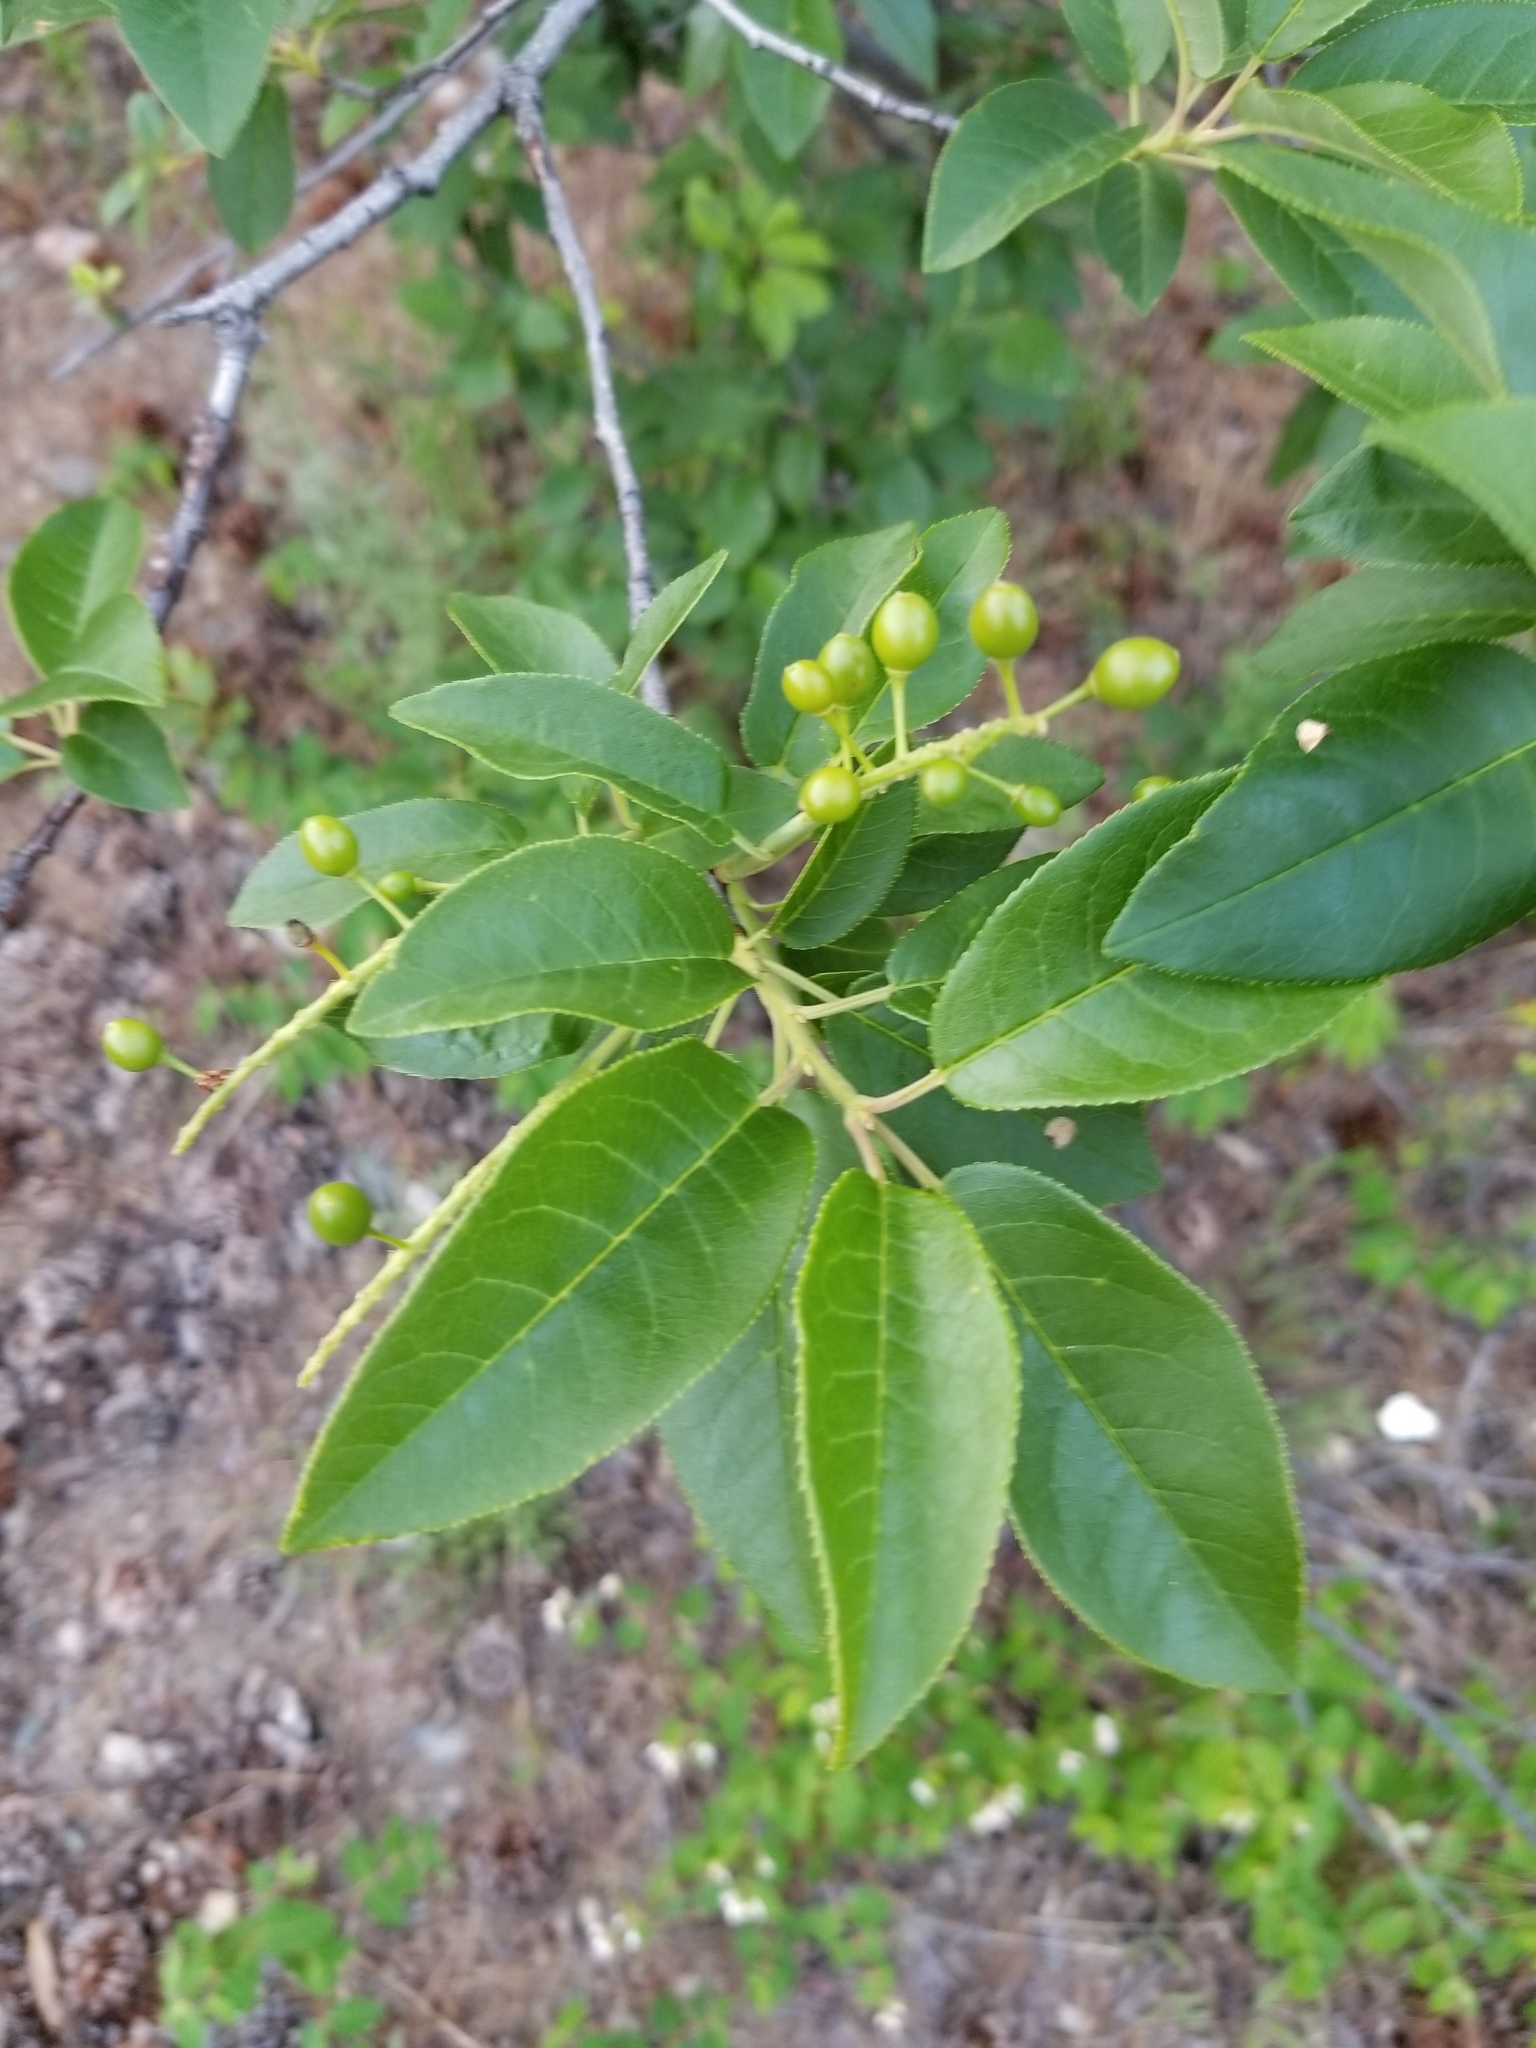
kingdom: Plantae
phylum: Tracheophyta
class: Magnoliopsida
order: Rosales
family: Rosaceae
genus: Prunus
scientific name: Prunus virginiana
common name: Chokecherry
